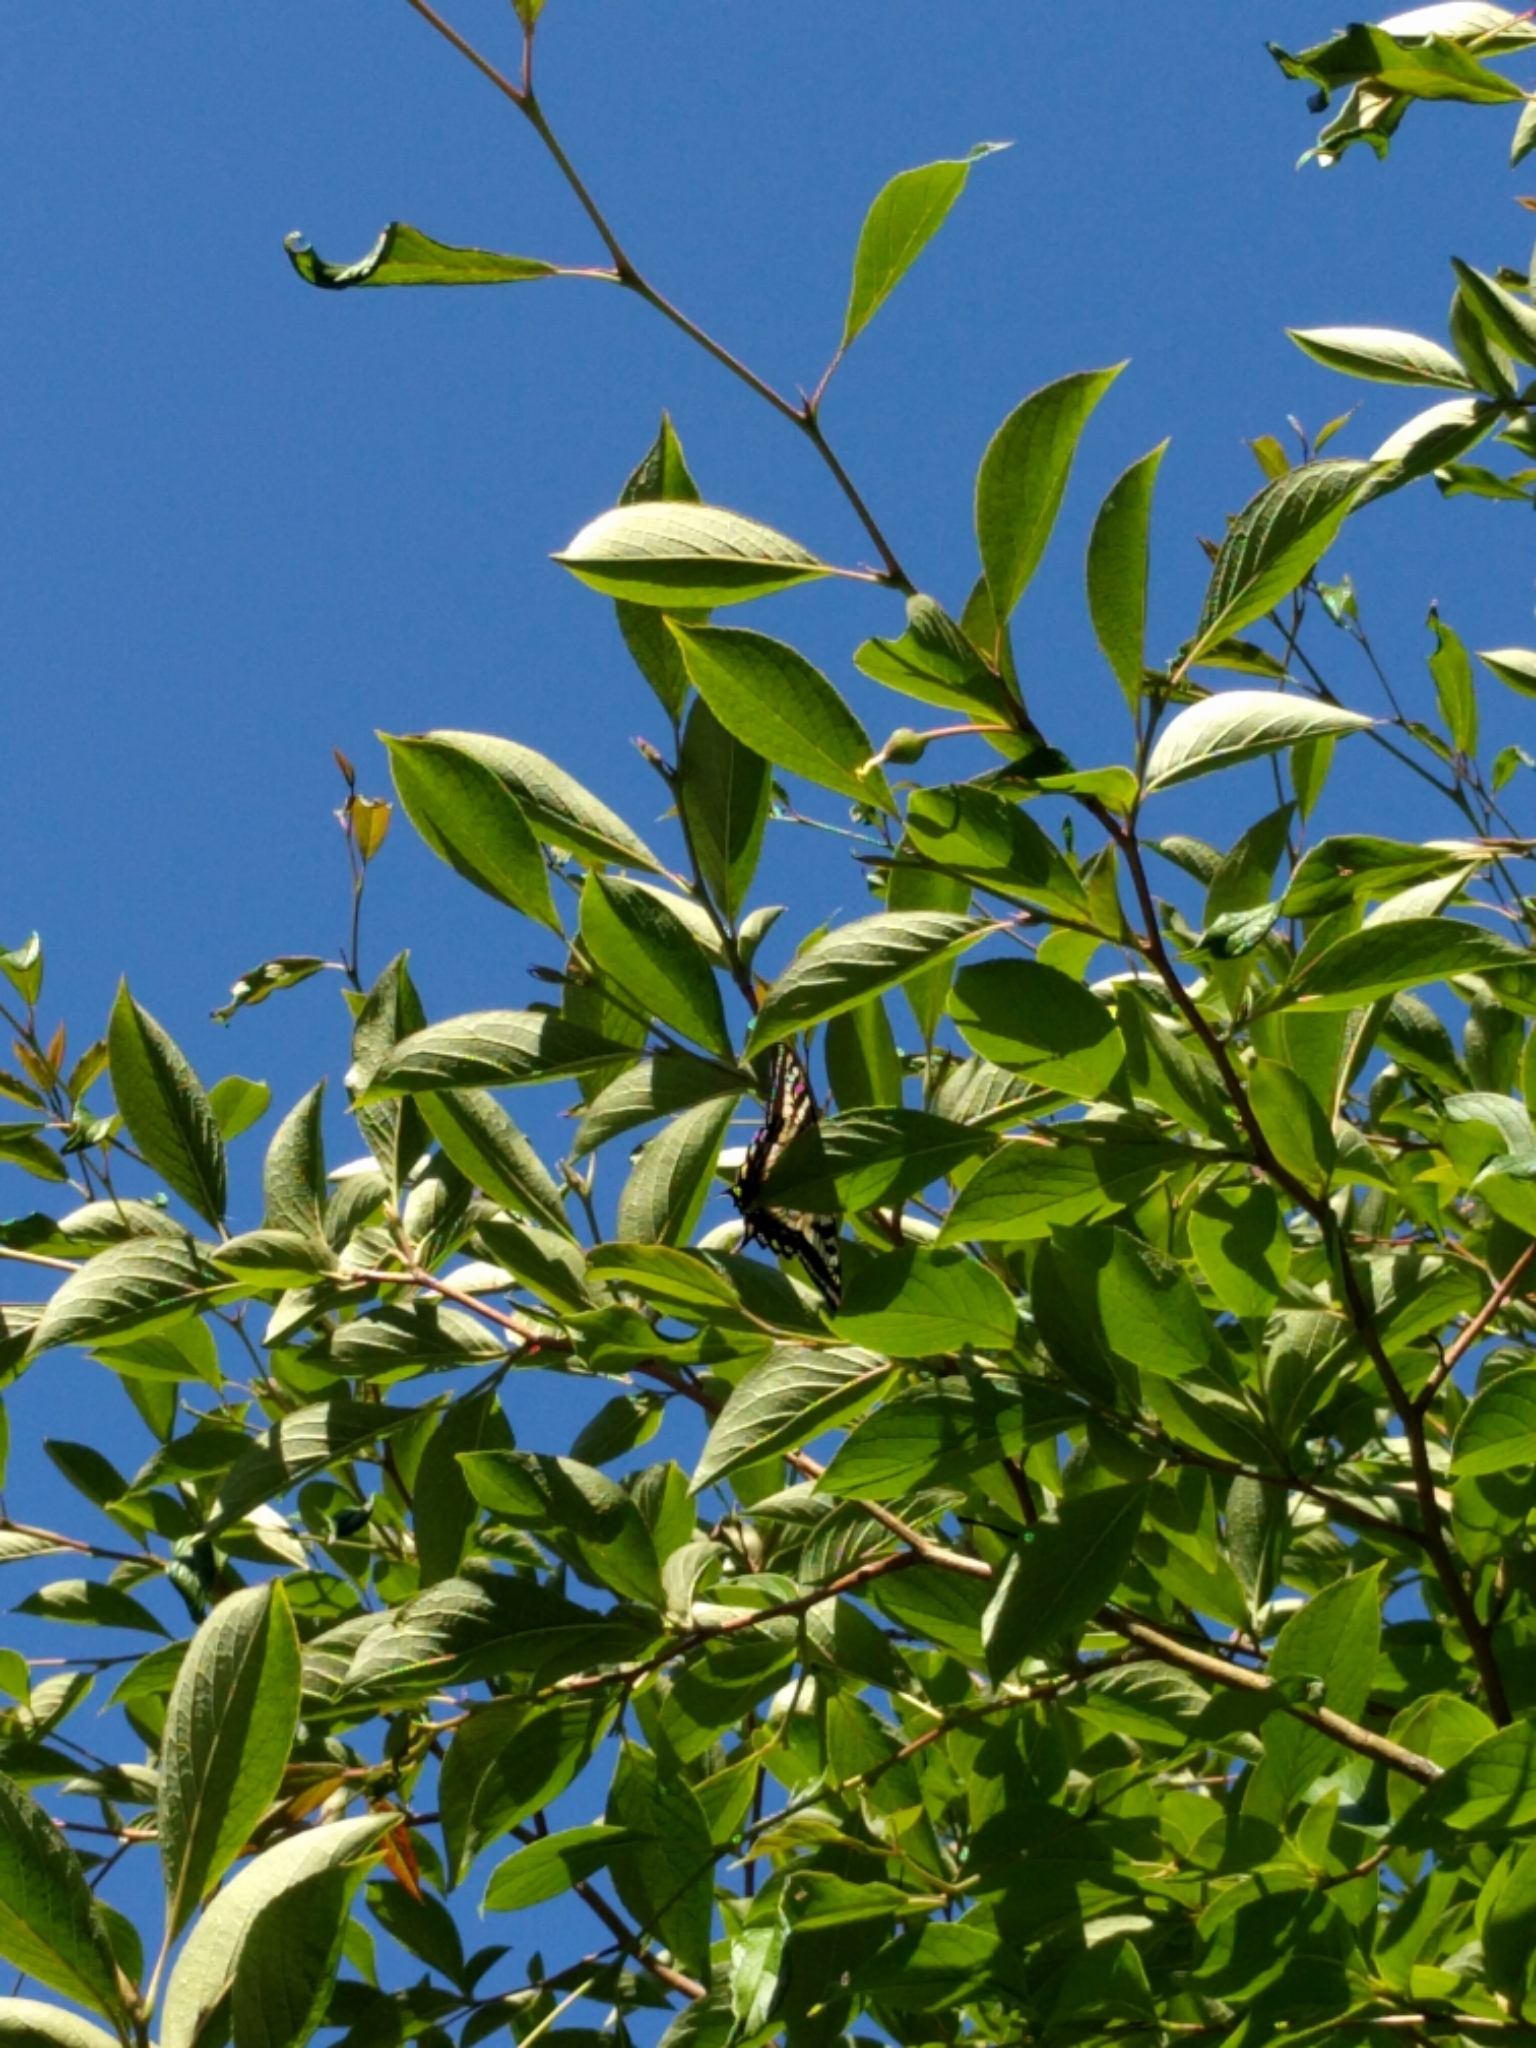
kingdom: Animalia
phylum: Arthropoda
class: Insecta
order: Lepidoptera
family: Papilionidae
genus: Papilio
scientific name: Papilio eurymedon
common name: Pale tiger swallowtail
